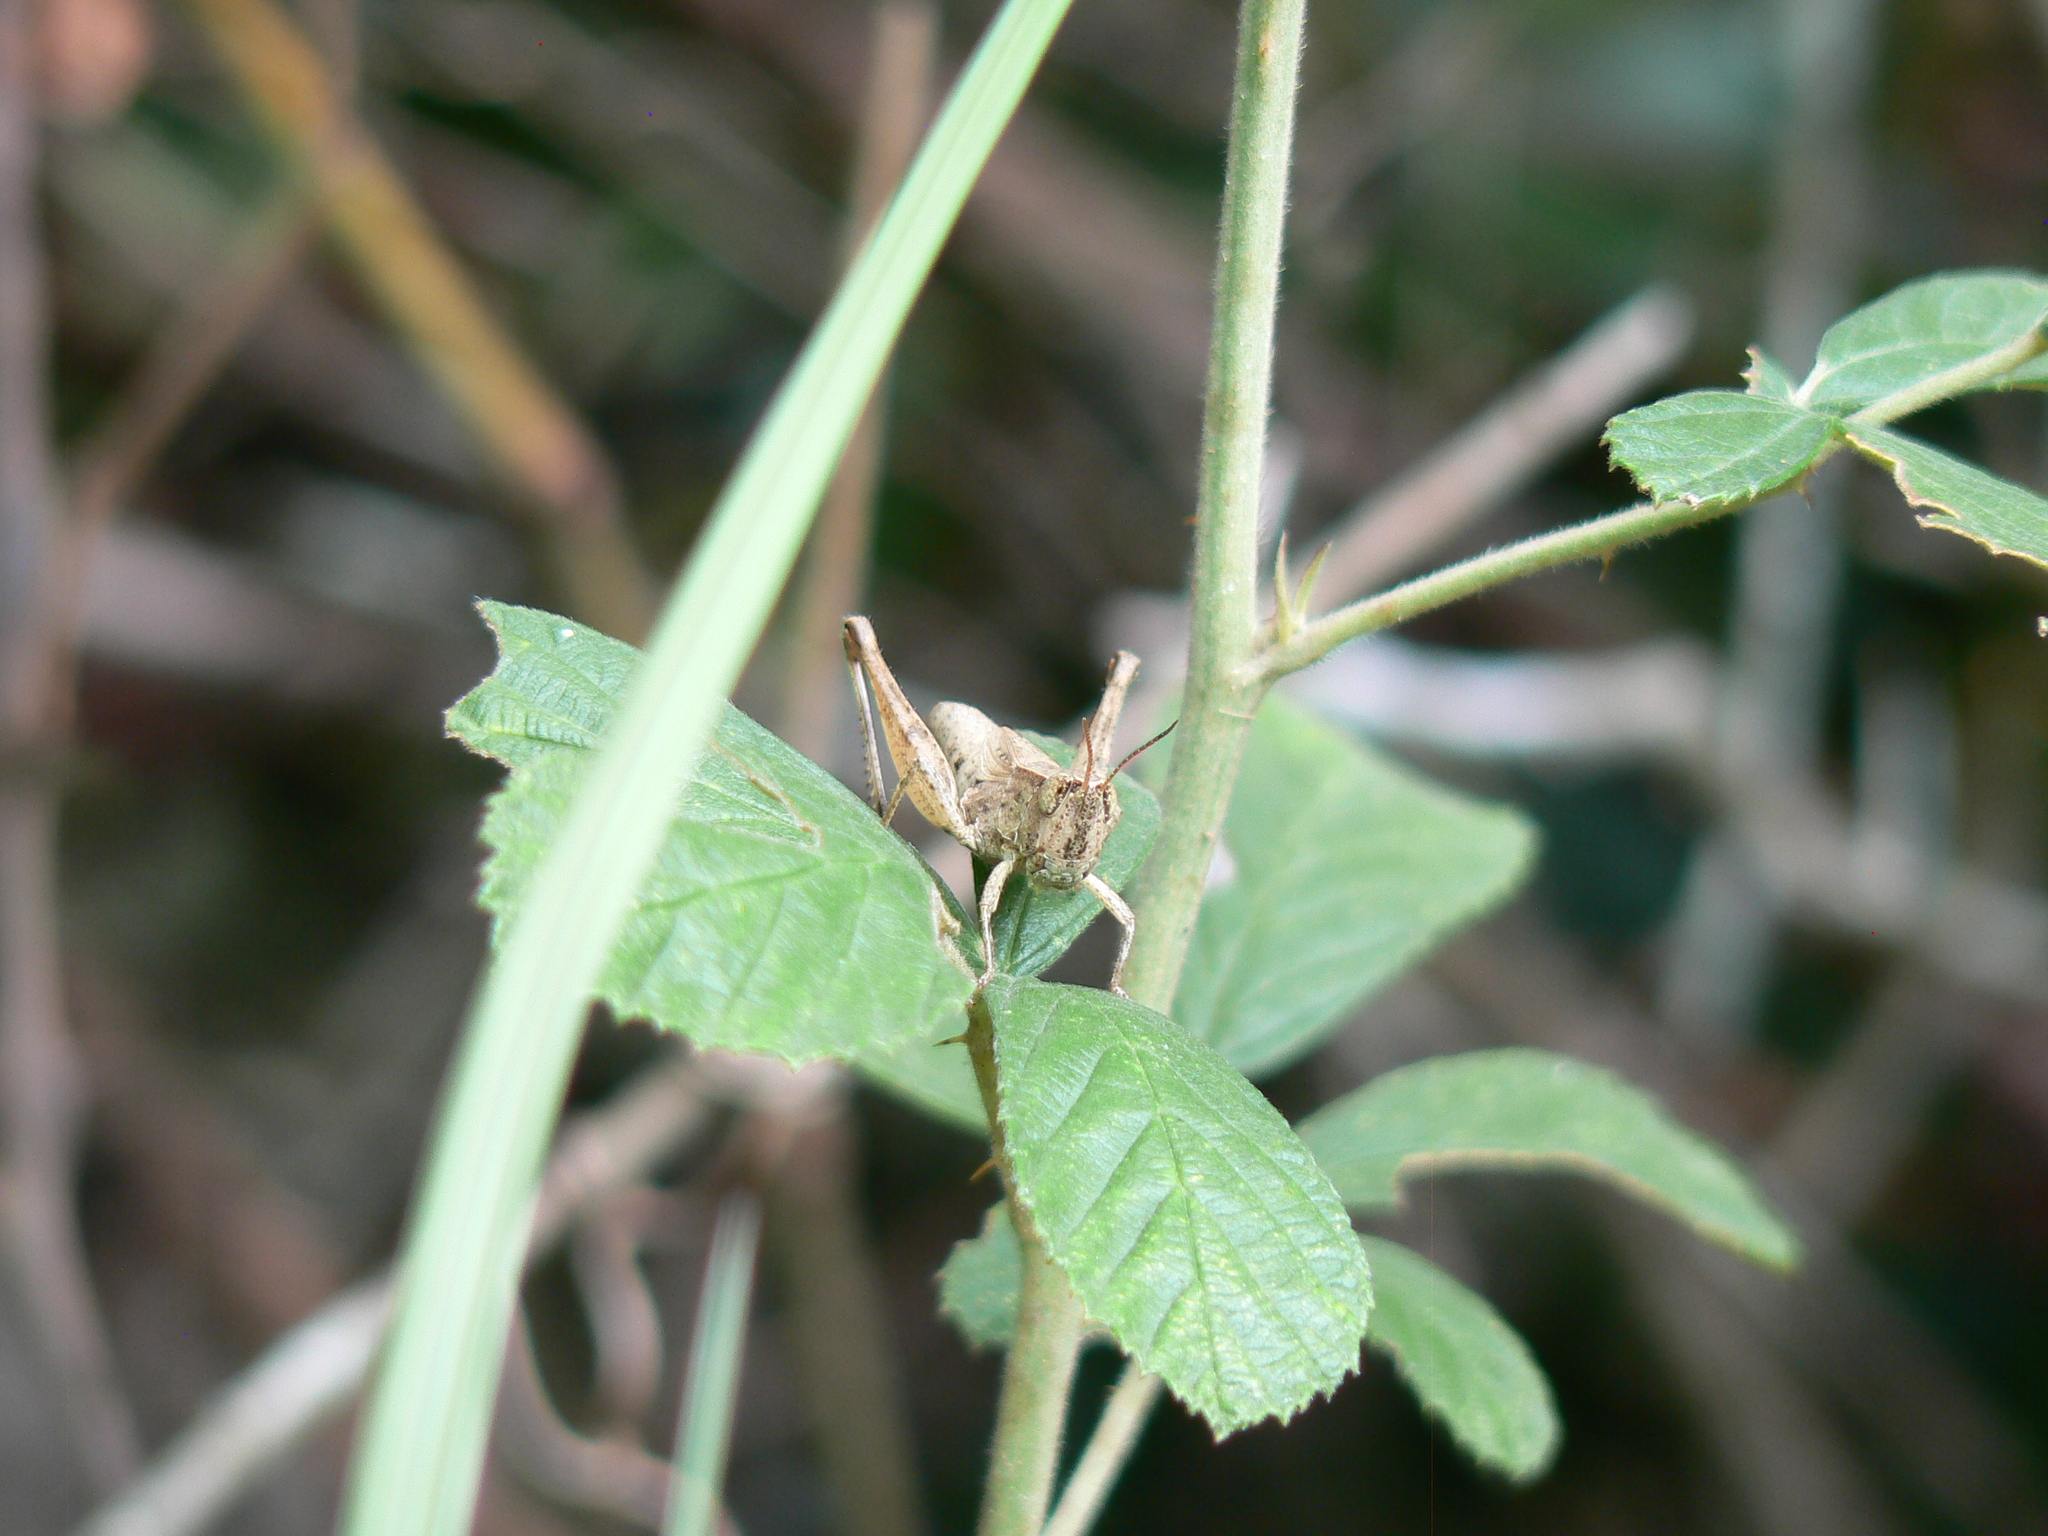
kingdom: Animalia
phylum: Arthropoda
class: Insecta
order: Orthoptera
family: Acrididae
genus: Dichromorpha
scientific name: Dichromorpha viridis
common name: Short-winged green grasshopper
